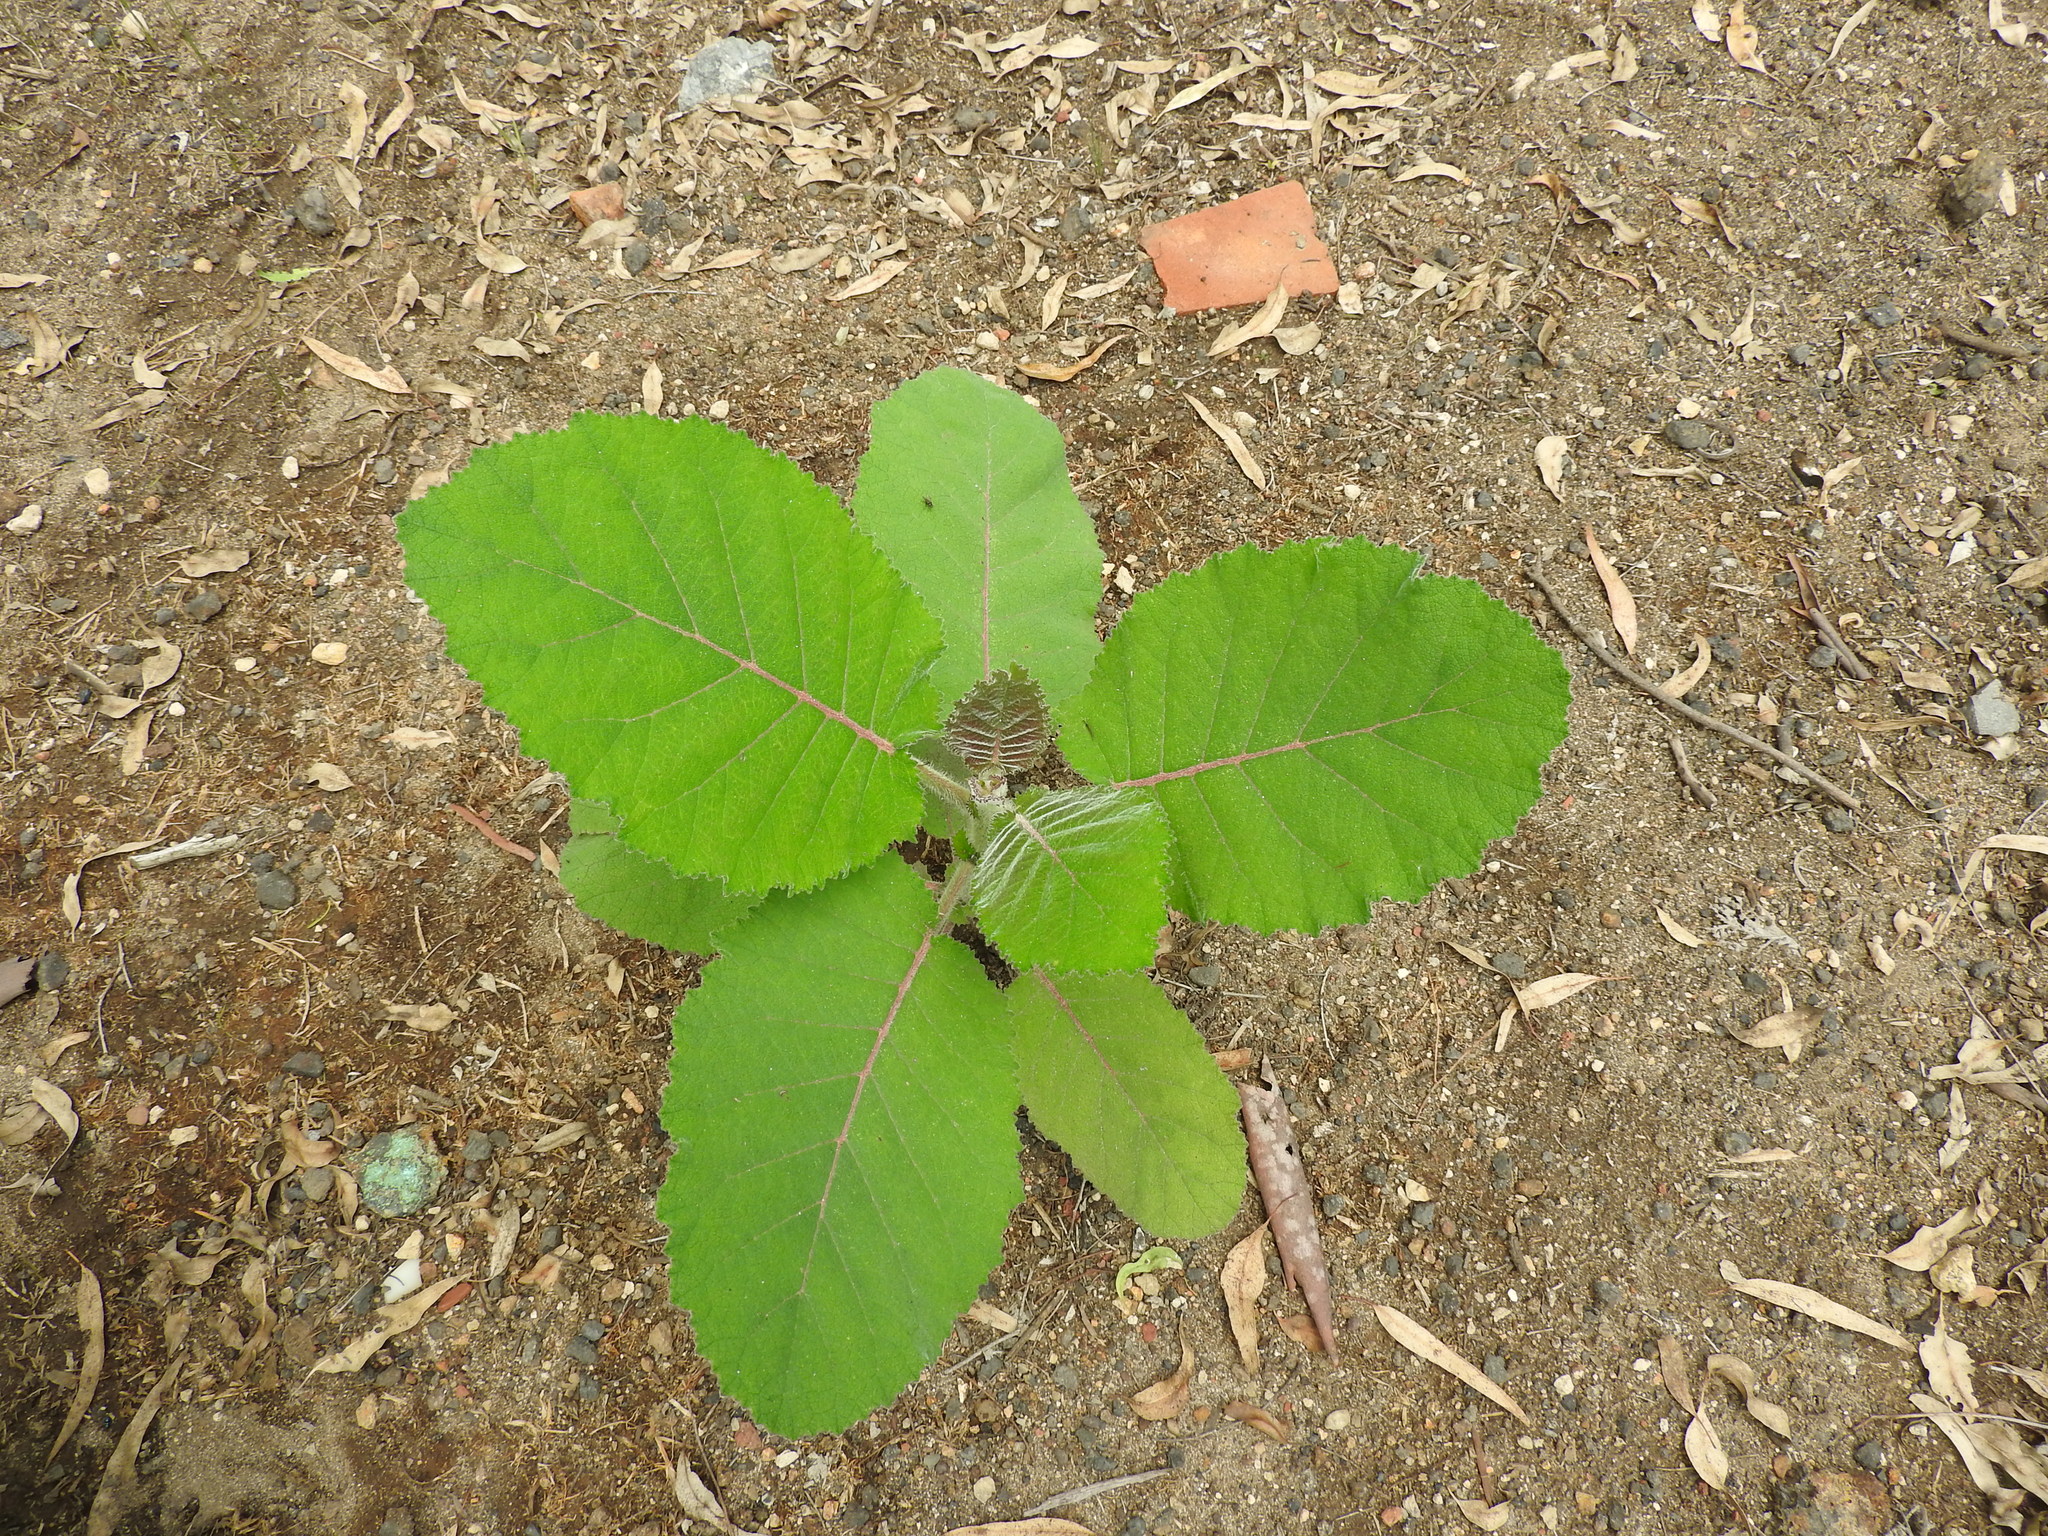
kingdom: Plantae
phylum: Tracheophyta
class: Magnoliopsida
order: Boraginales
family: Namaceae
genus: Wigandia
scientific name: Wigandia urens
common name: Caracus wigandia
